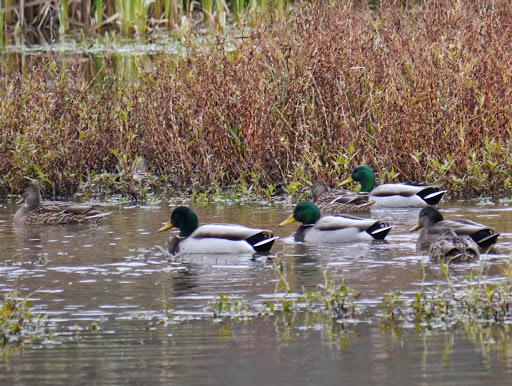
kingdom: Animalia
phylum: Chordata
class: Aves
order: Anseriformes
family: Anatidae
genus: Anas
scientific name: Anas platyrhynchos
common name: Mallard
